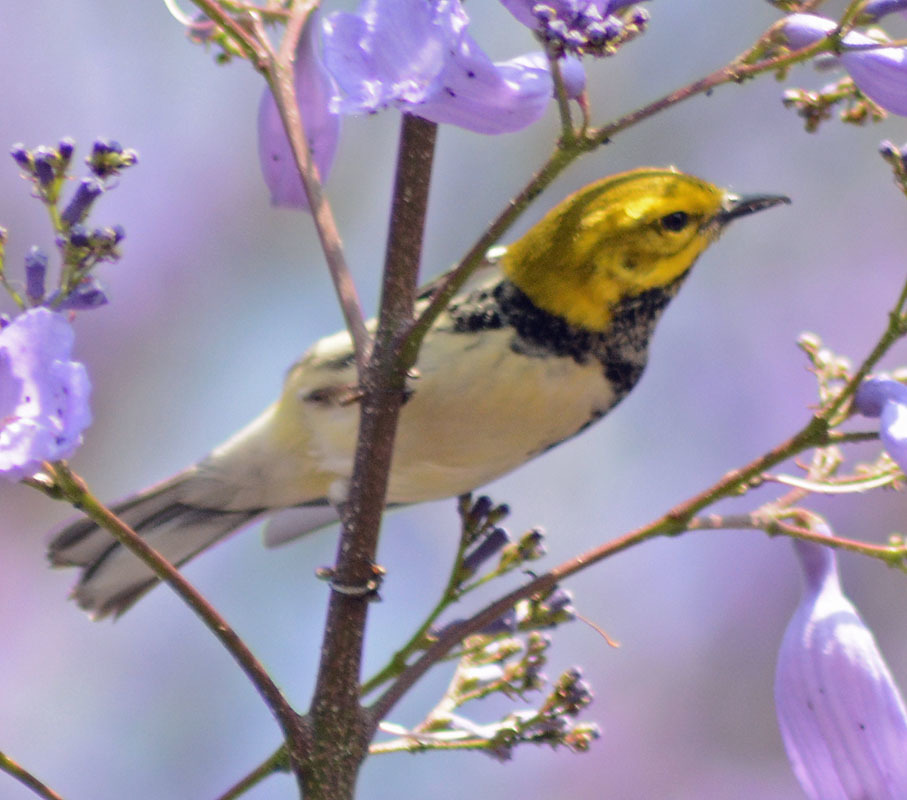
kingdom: Animalia
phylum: Chordata
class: Aves
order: Passeriformes
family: Parulidae
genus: Setophaga
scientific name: Setophaga virens
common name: Black-throated green warbler
